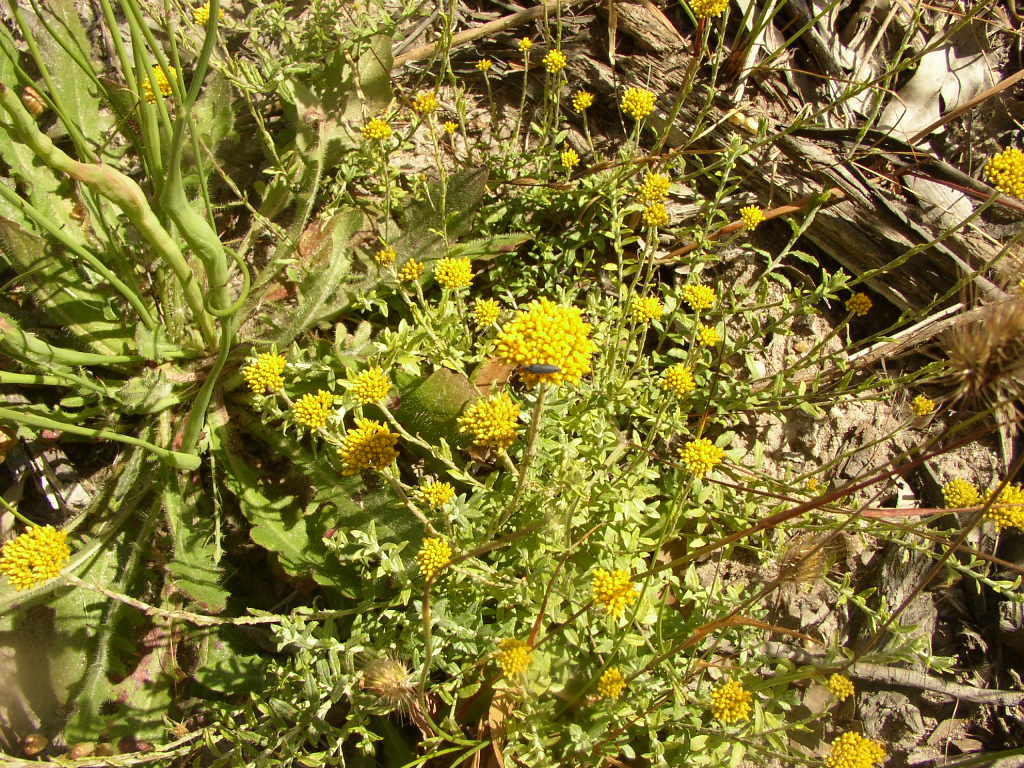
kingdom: Plantae
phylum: Tracheophyta
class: Magnoliopsida
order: Asterales
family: Asteraceae
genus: Helichrysum
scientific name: Helichrysum cymosum
